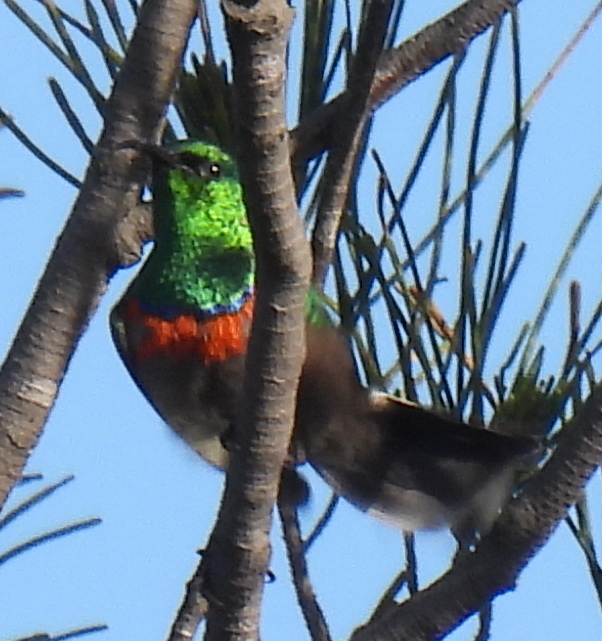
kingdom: Animalia
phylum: Chordata
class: Aves
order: Passeriformes
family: Nectariniidae
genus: Cinnyris
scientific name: Cinnyris chalybeus
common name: Southern double-collared sunbird
